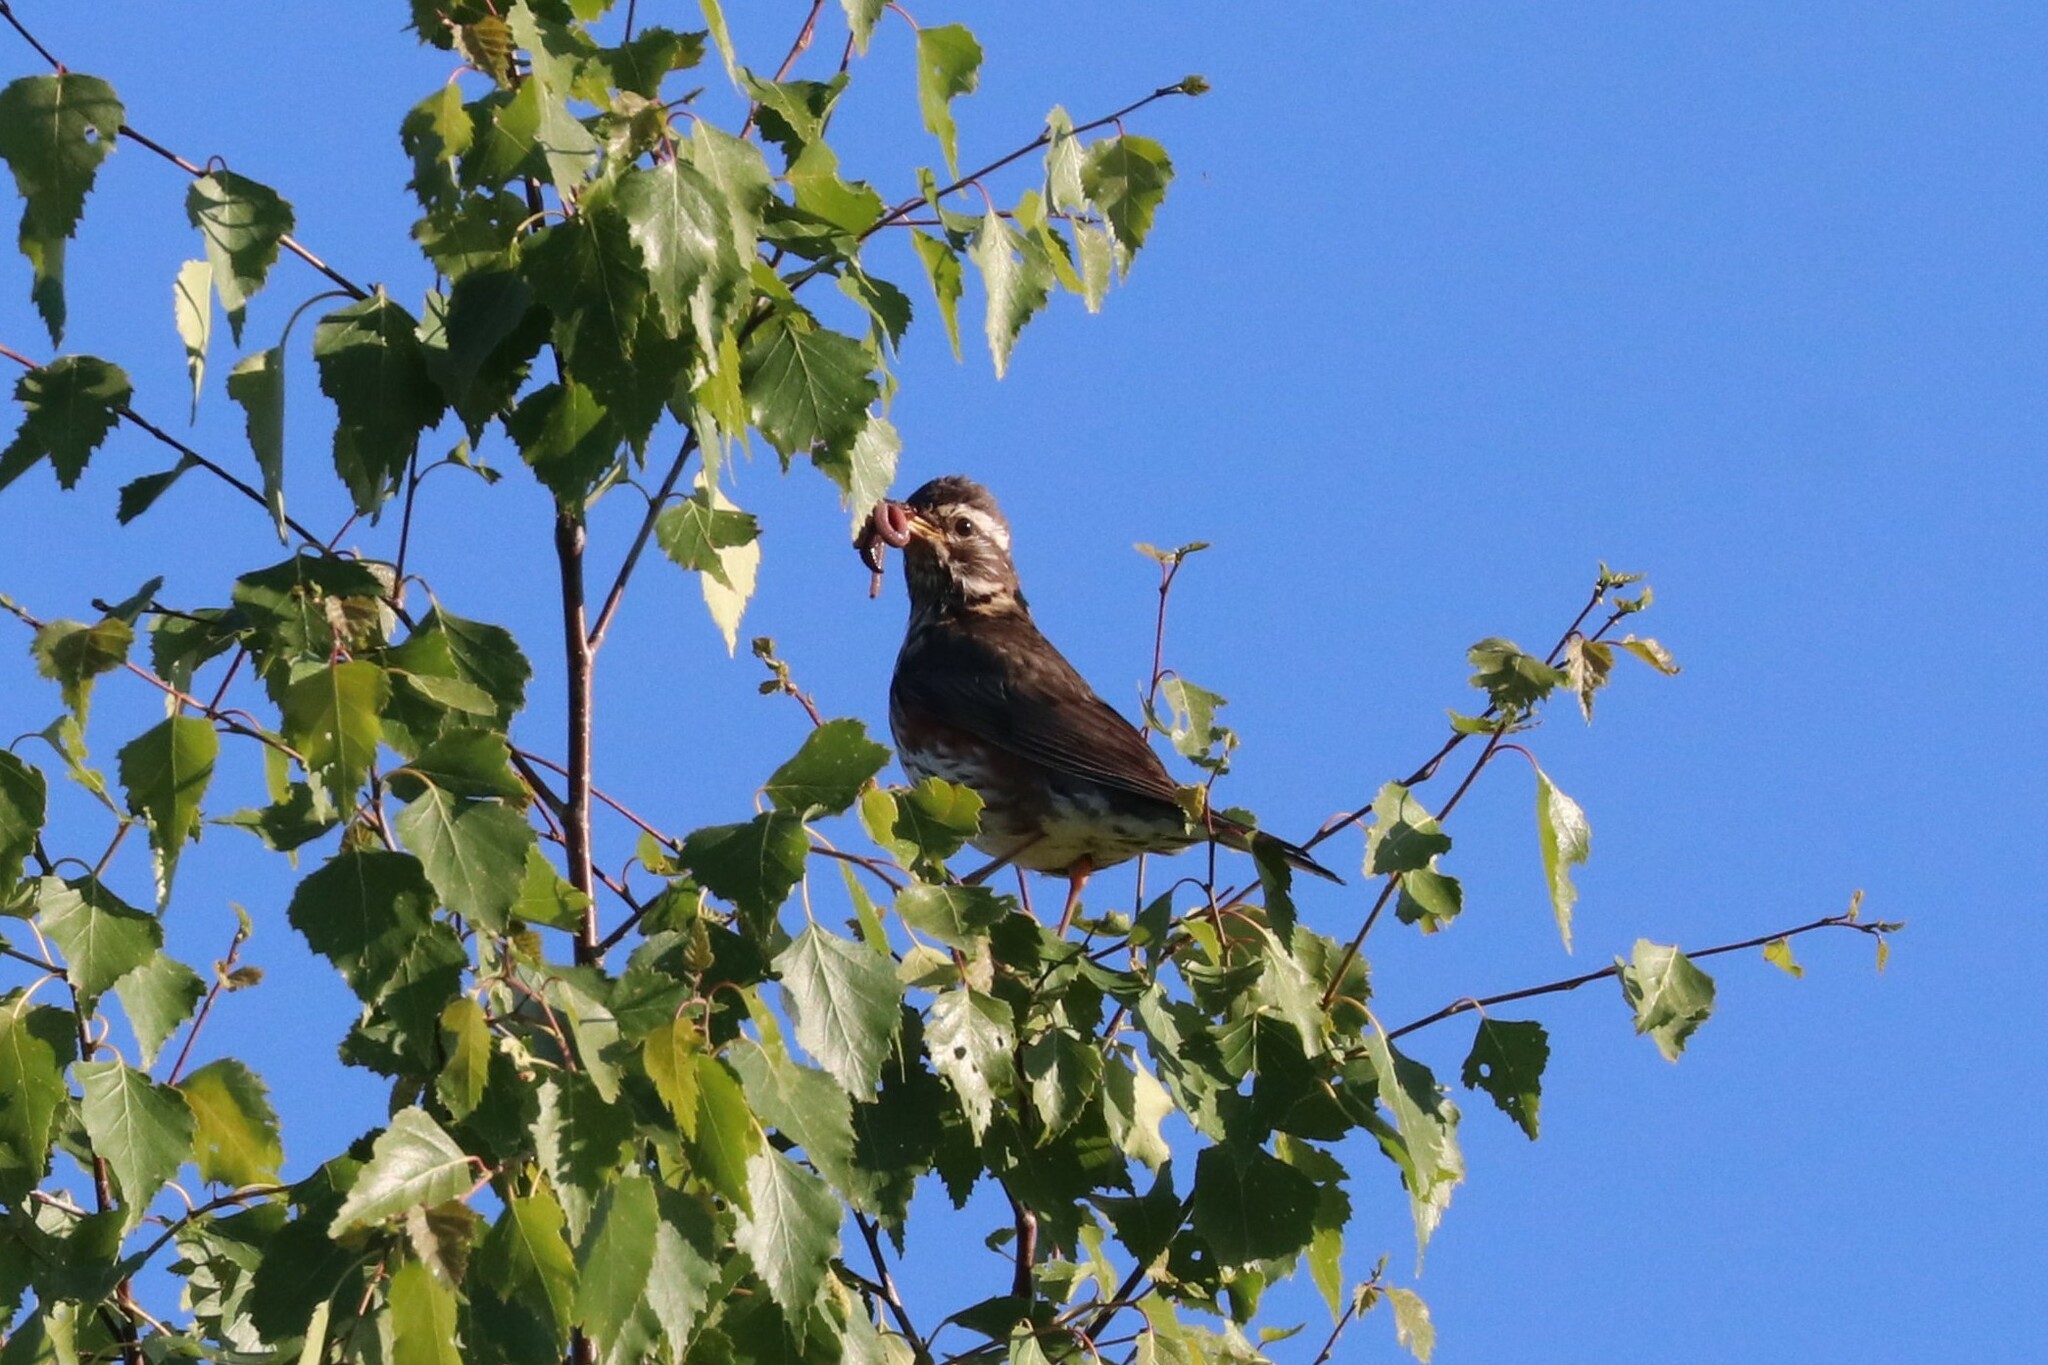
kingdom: Animalia
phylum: Chordata
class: Aves
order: Passeriformes
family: Turdidae
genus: Turdus
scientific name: Turdus iliacus
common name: Redwing
